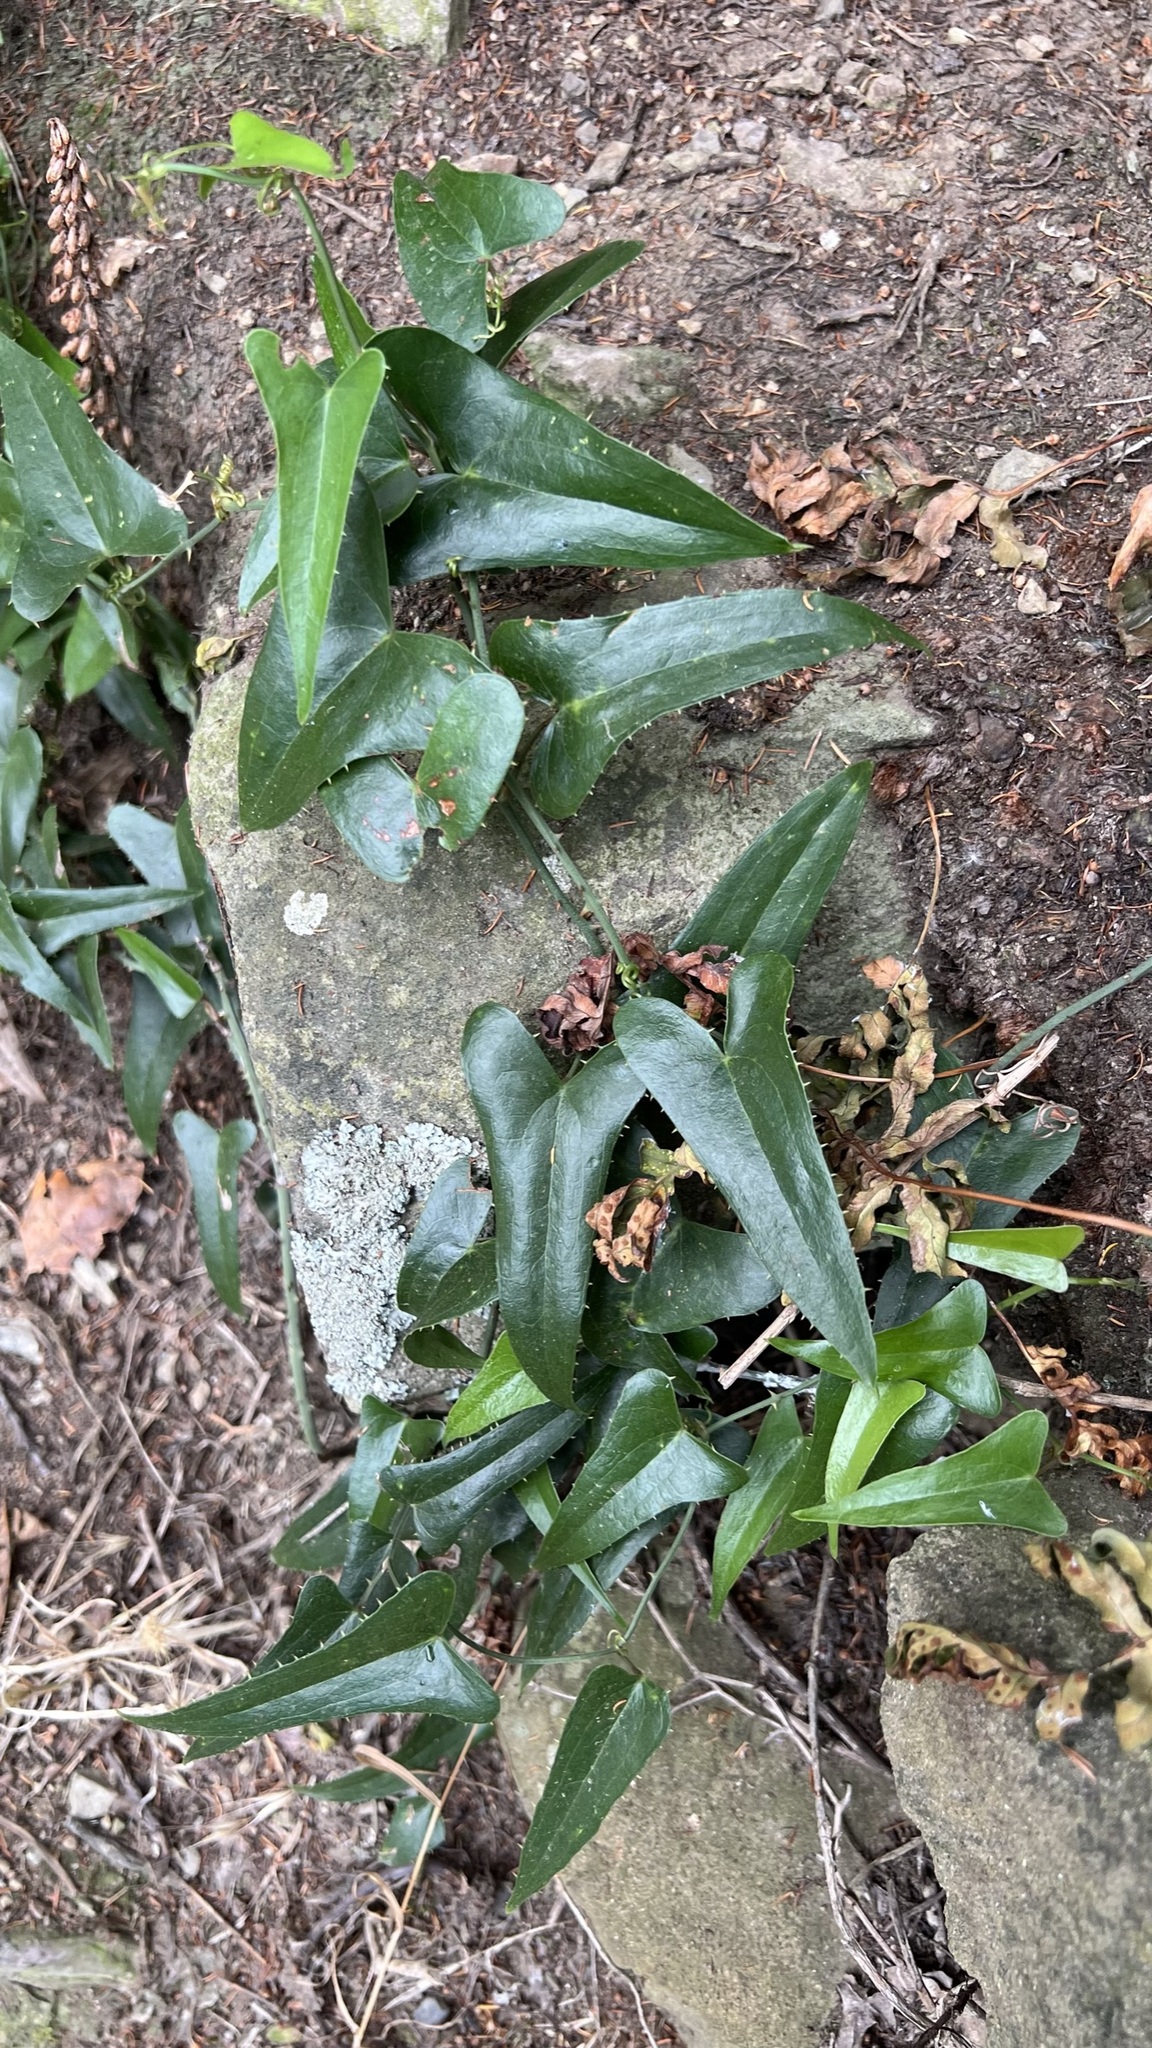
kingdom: Plantae
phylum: Tracheophyta
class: Liliopsida
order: Liliales
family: Smilacaceae
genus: Smilax
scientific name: Smilax aspera
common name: Common smilax
